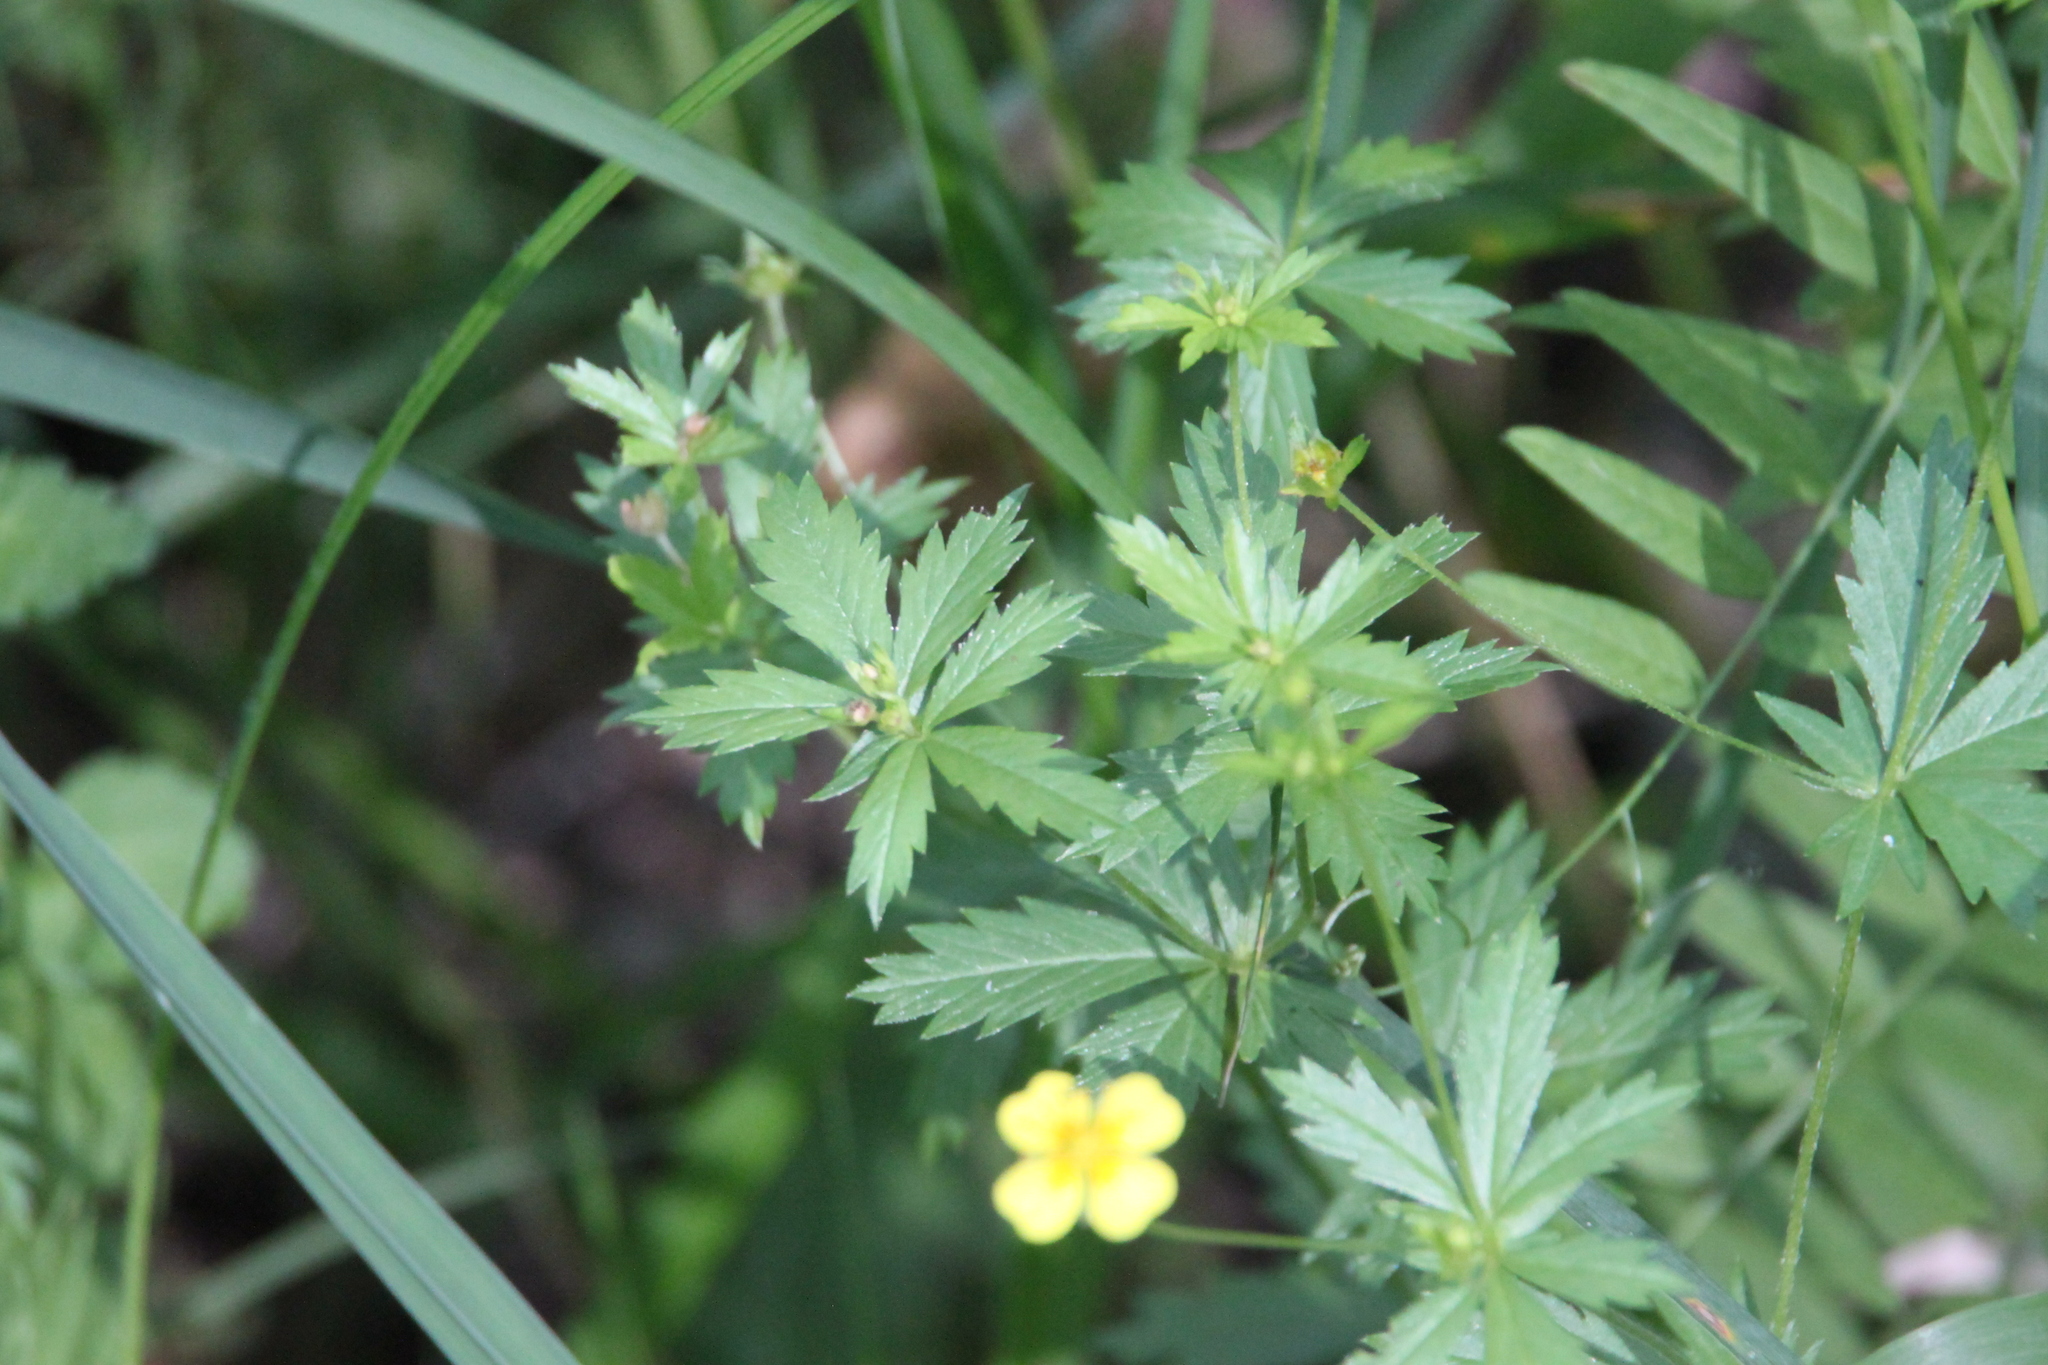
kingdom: Plantae
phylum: Tracheophyta
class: Magnoliopsida
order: Rosales
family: Rosaceae
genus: Potentilla
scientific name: Potentilla erecta
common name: Tormentil
